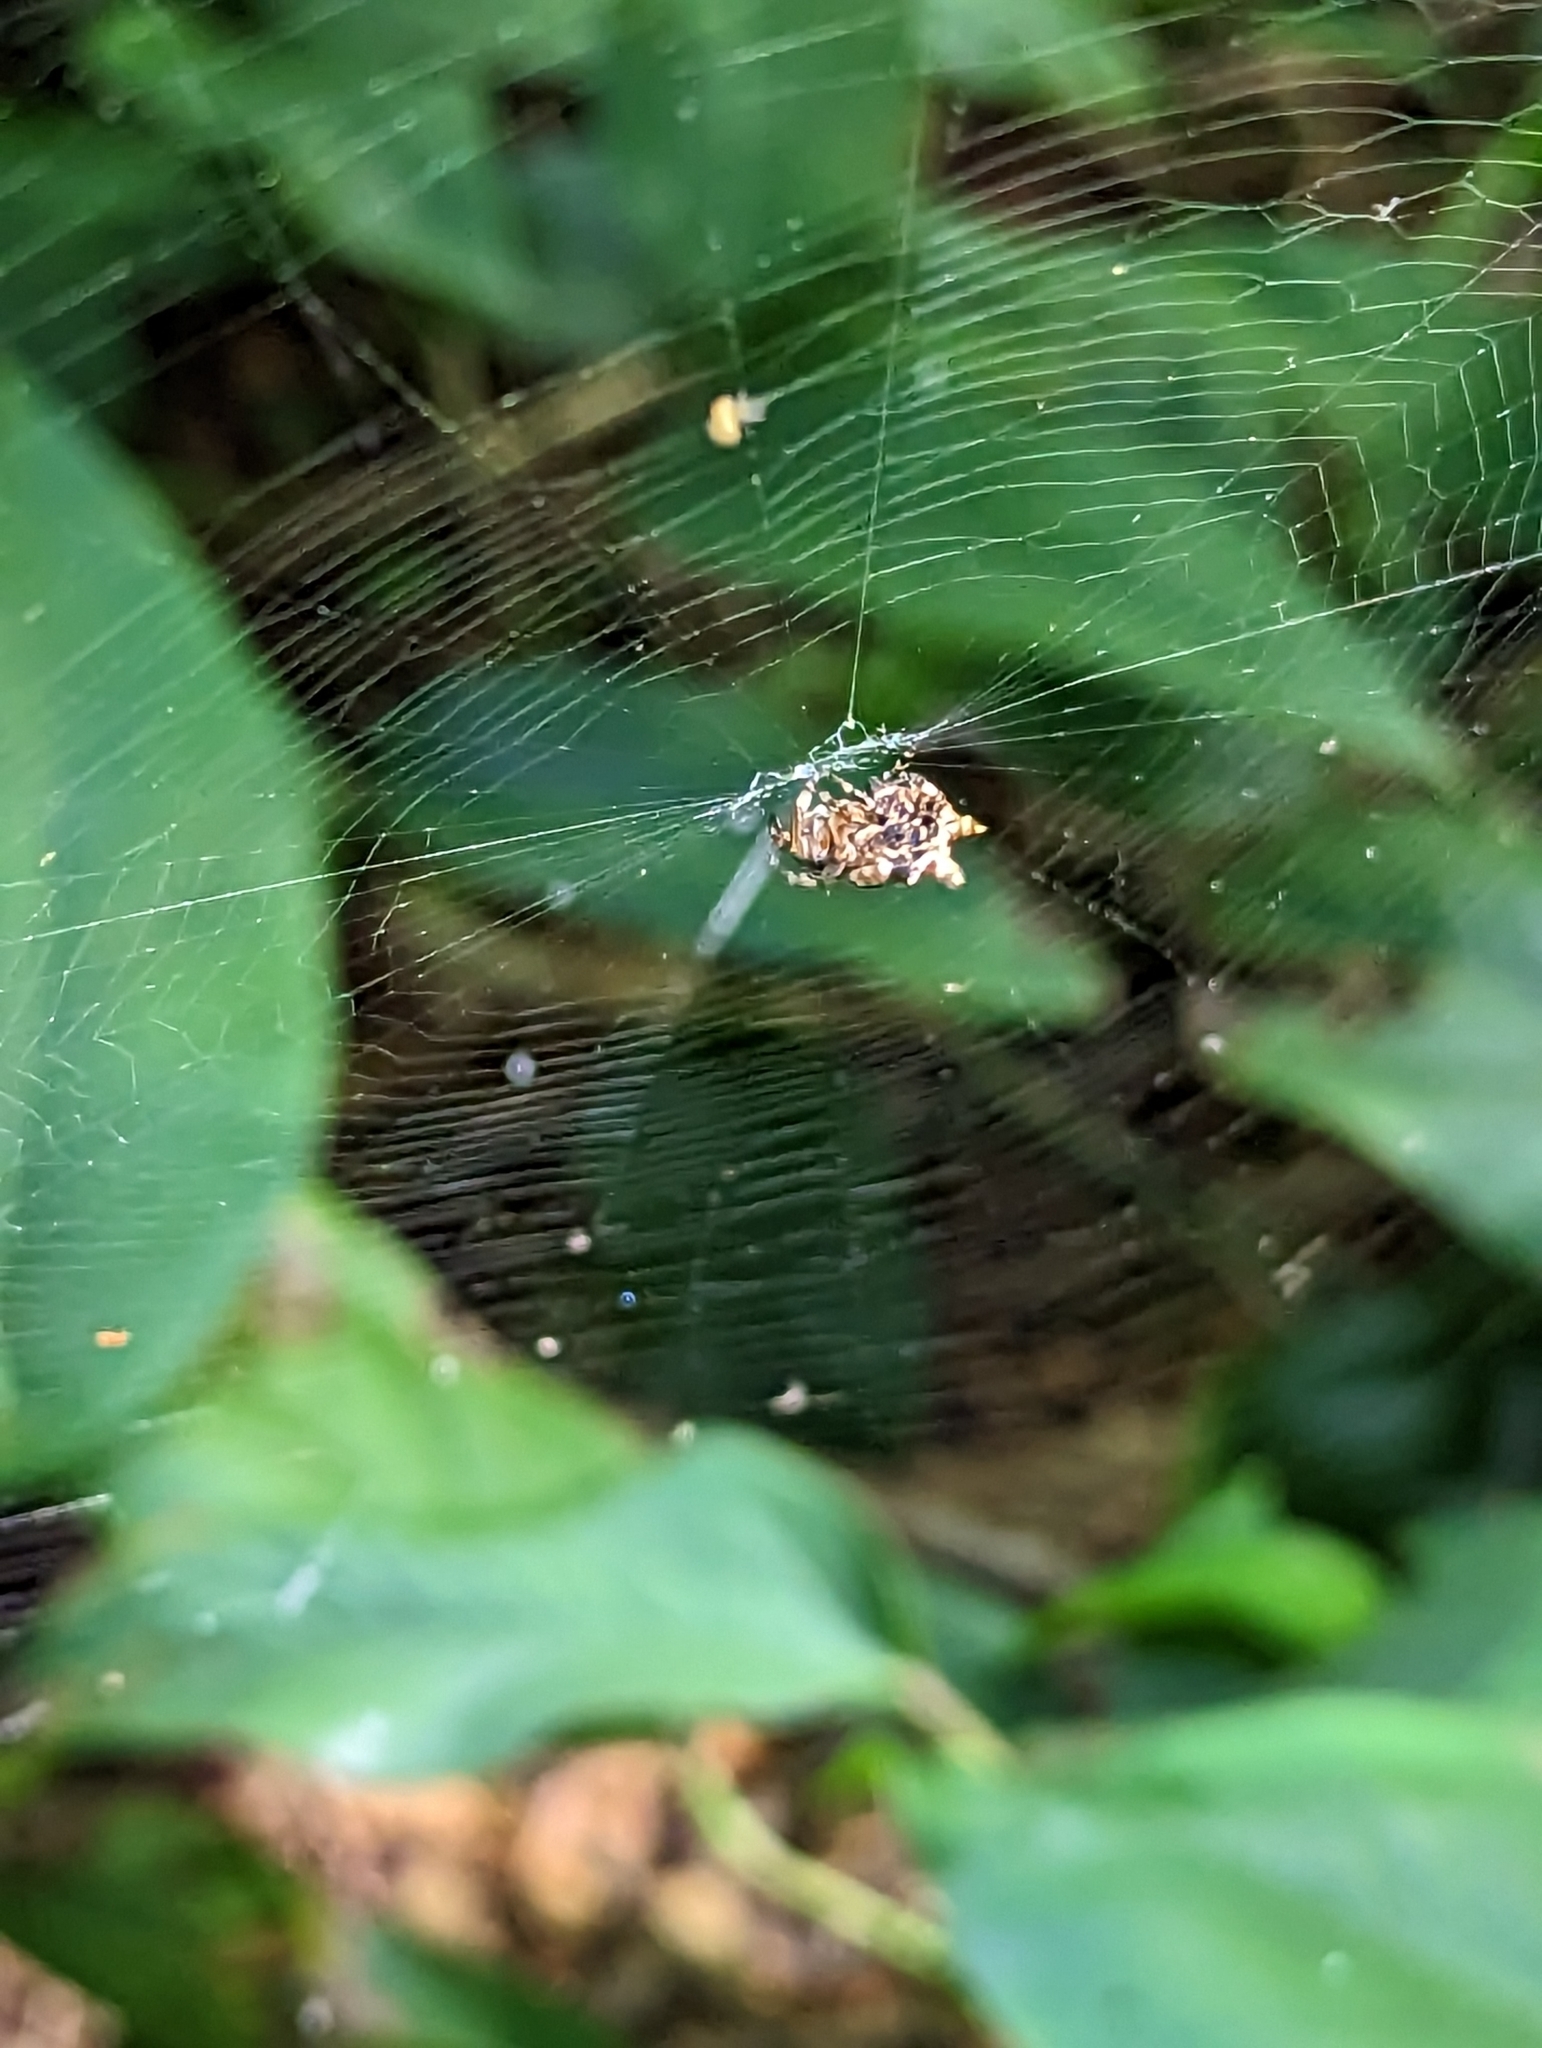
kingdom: Animalia
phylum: Arthropoda
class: Arachnida
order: Araneae
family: Araneidae
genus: Thelacantha
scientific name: Thelacantha brevispina
